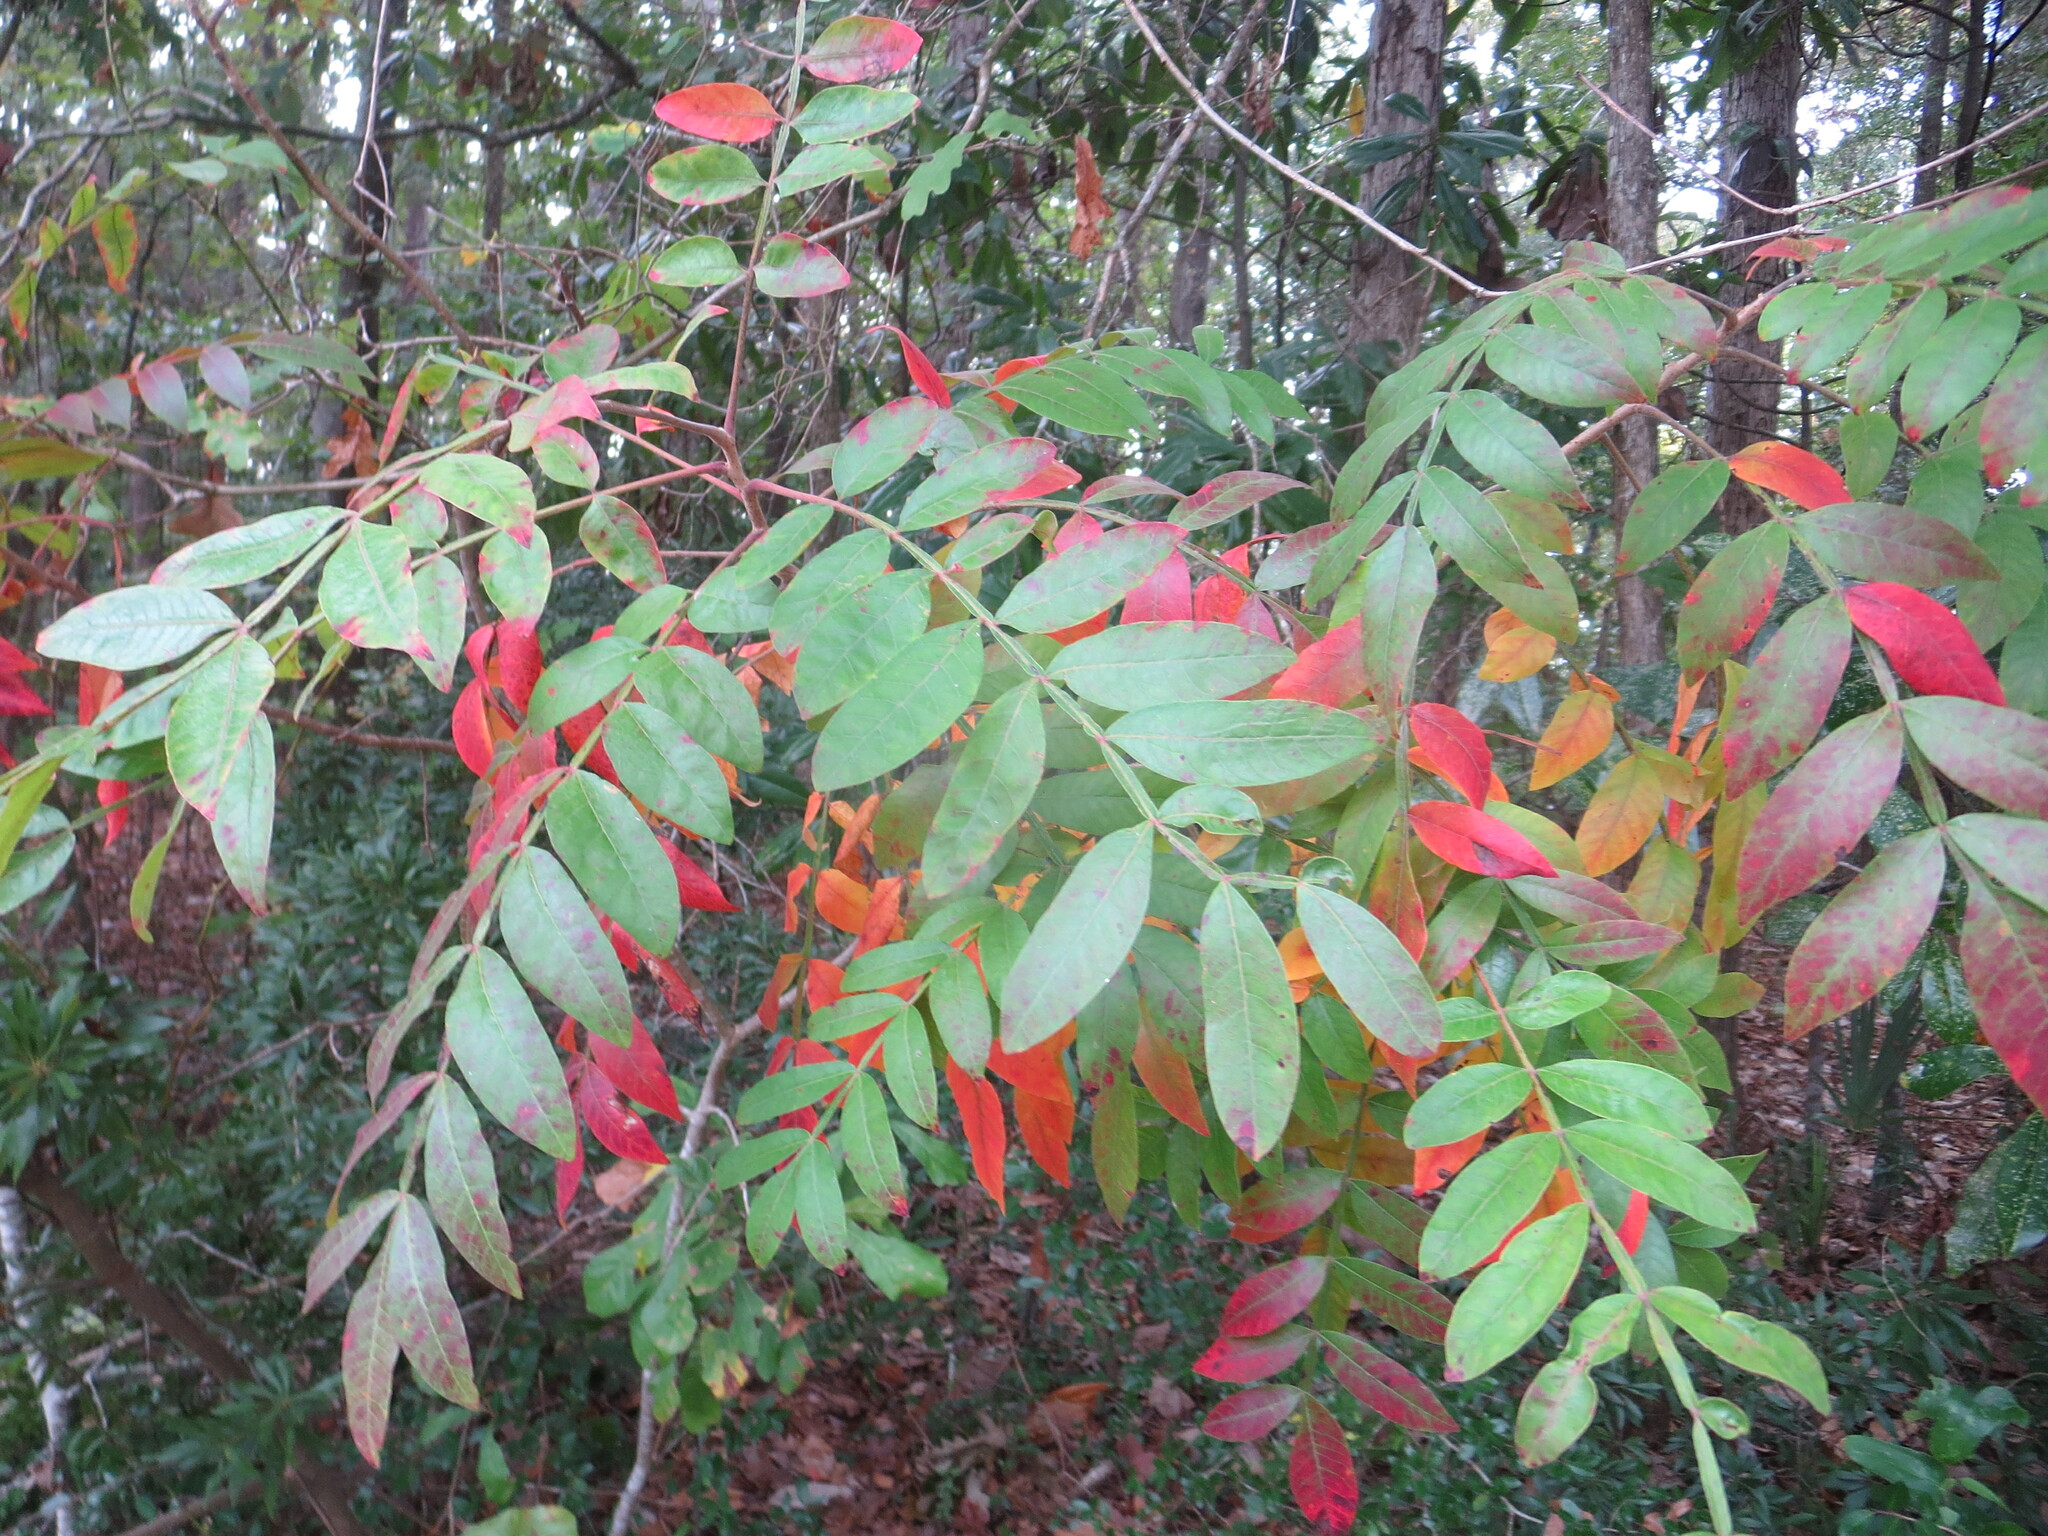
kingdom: Plantae
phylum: Tracheophyta
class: Magnoliopsida
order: Sapindales
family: Anacardiaceae
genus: Rhus
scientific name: Rhus copallina
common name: Shining sumac
